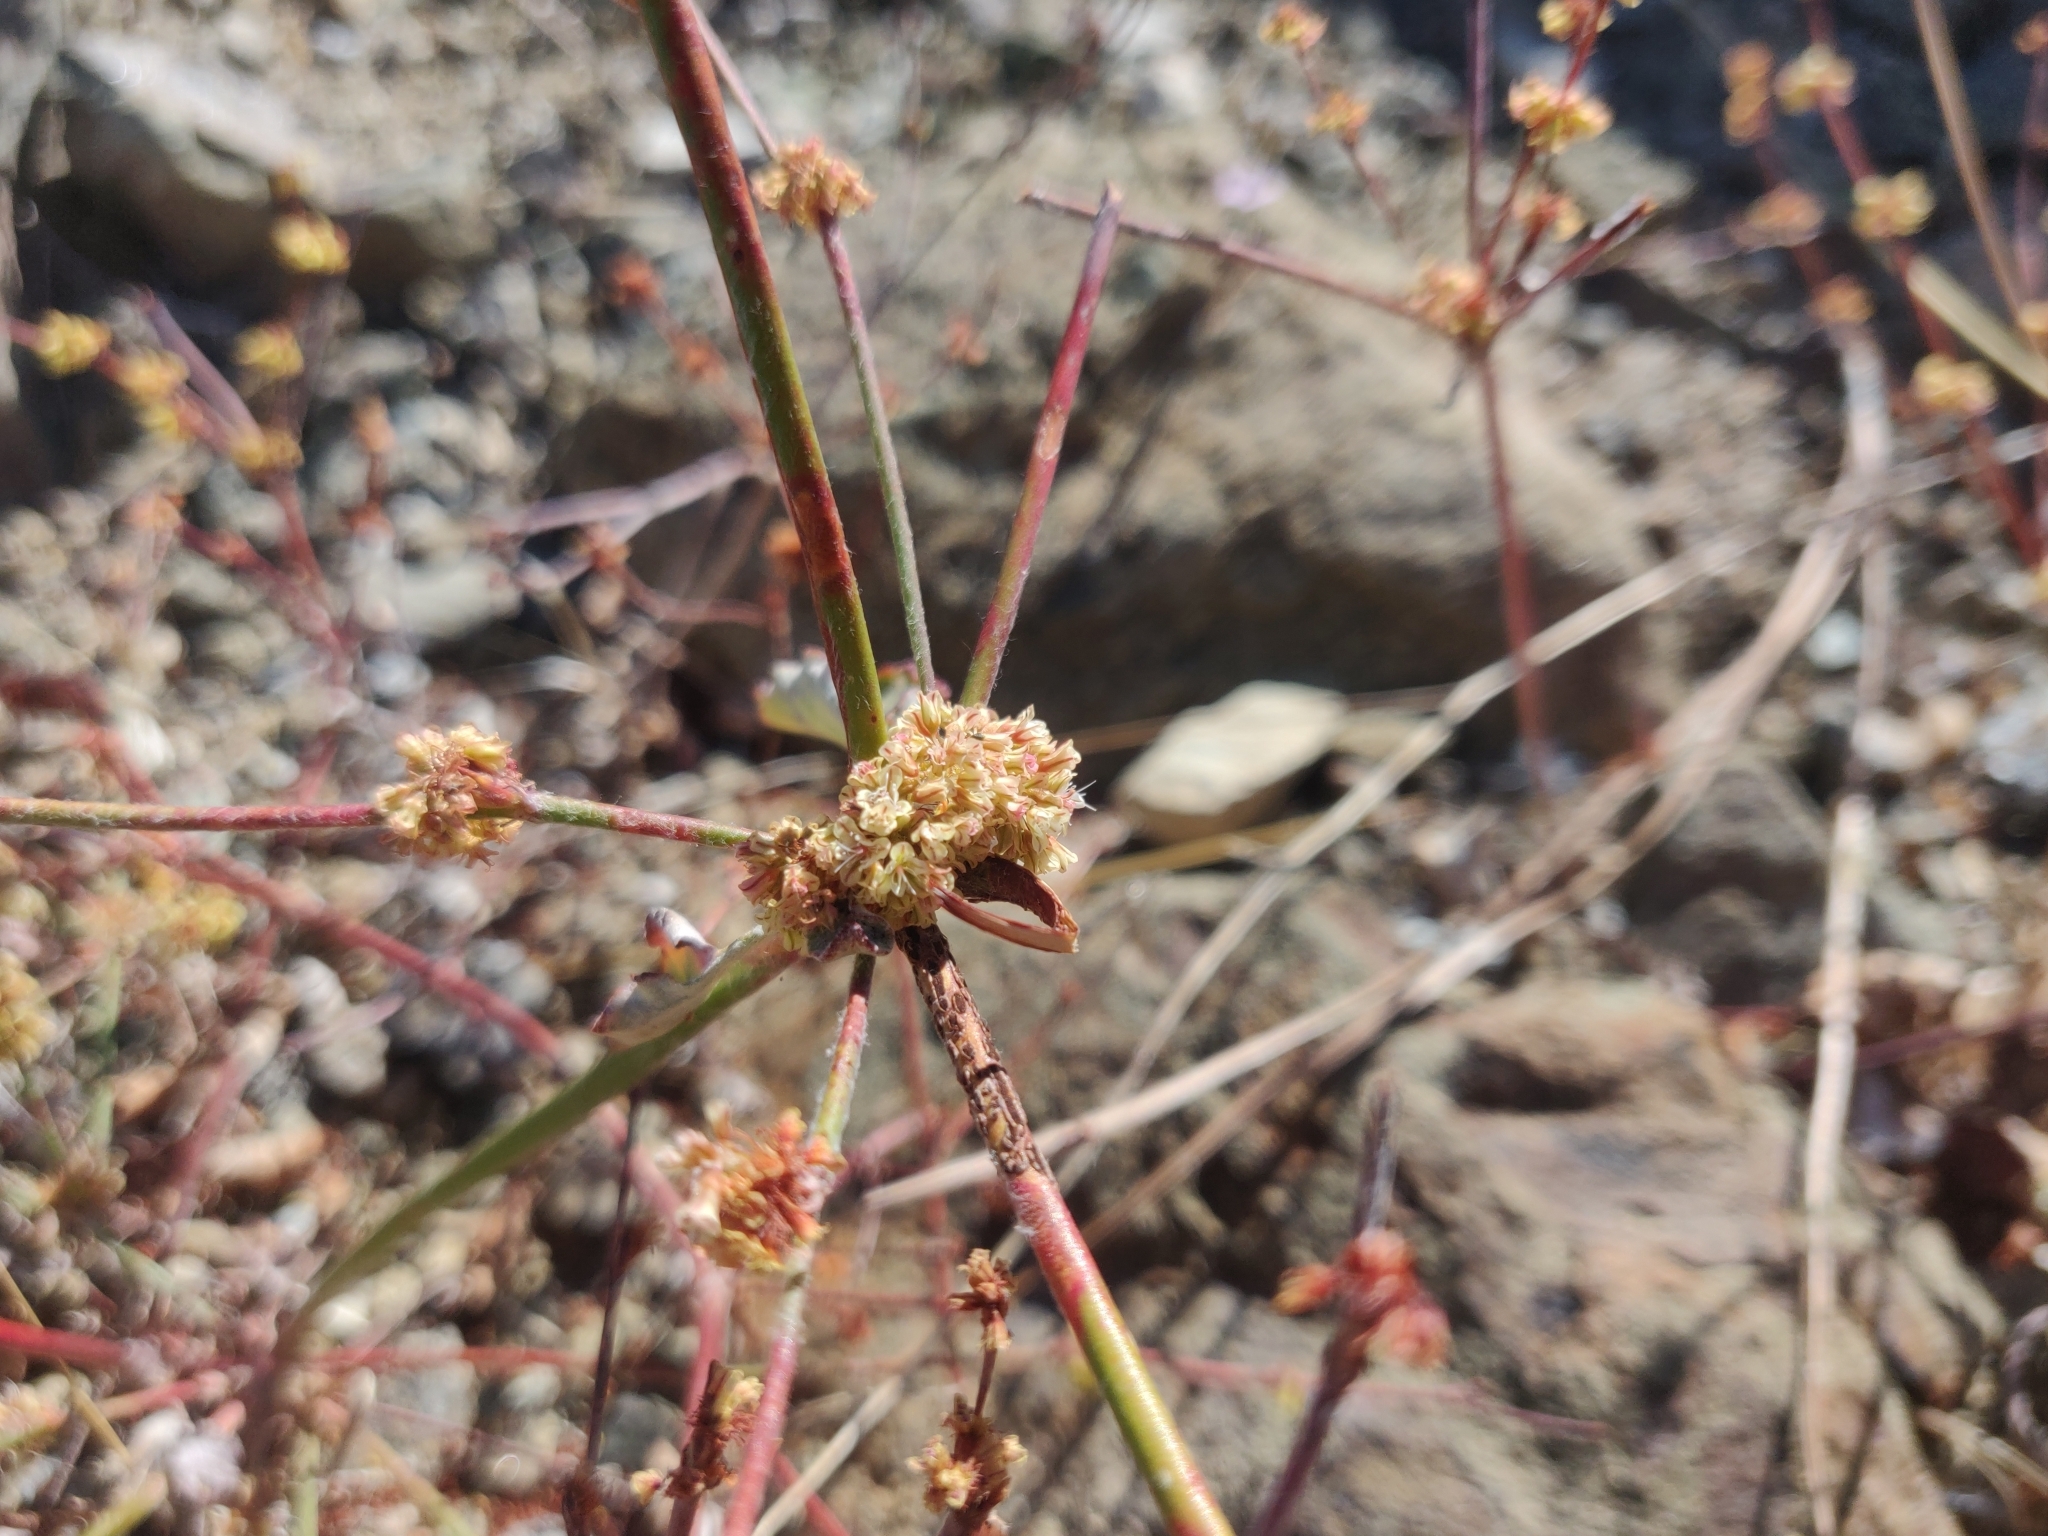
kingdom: Fungi
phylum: Basidiomycota
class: Pucciniomycetes
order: Pucciniales
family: Pucciniaceae
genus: Uromyces
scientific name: Uromyces intricatus
